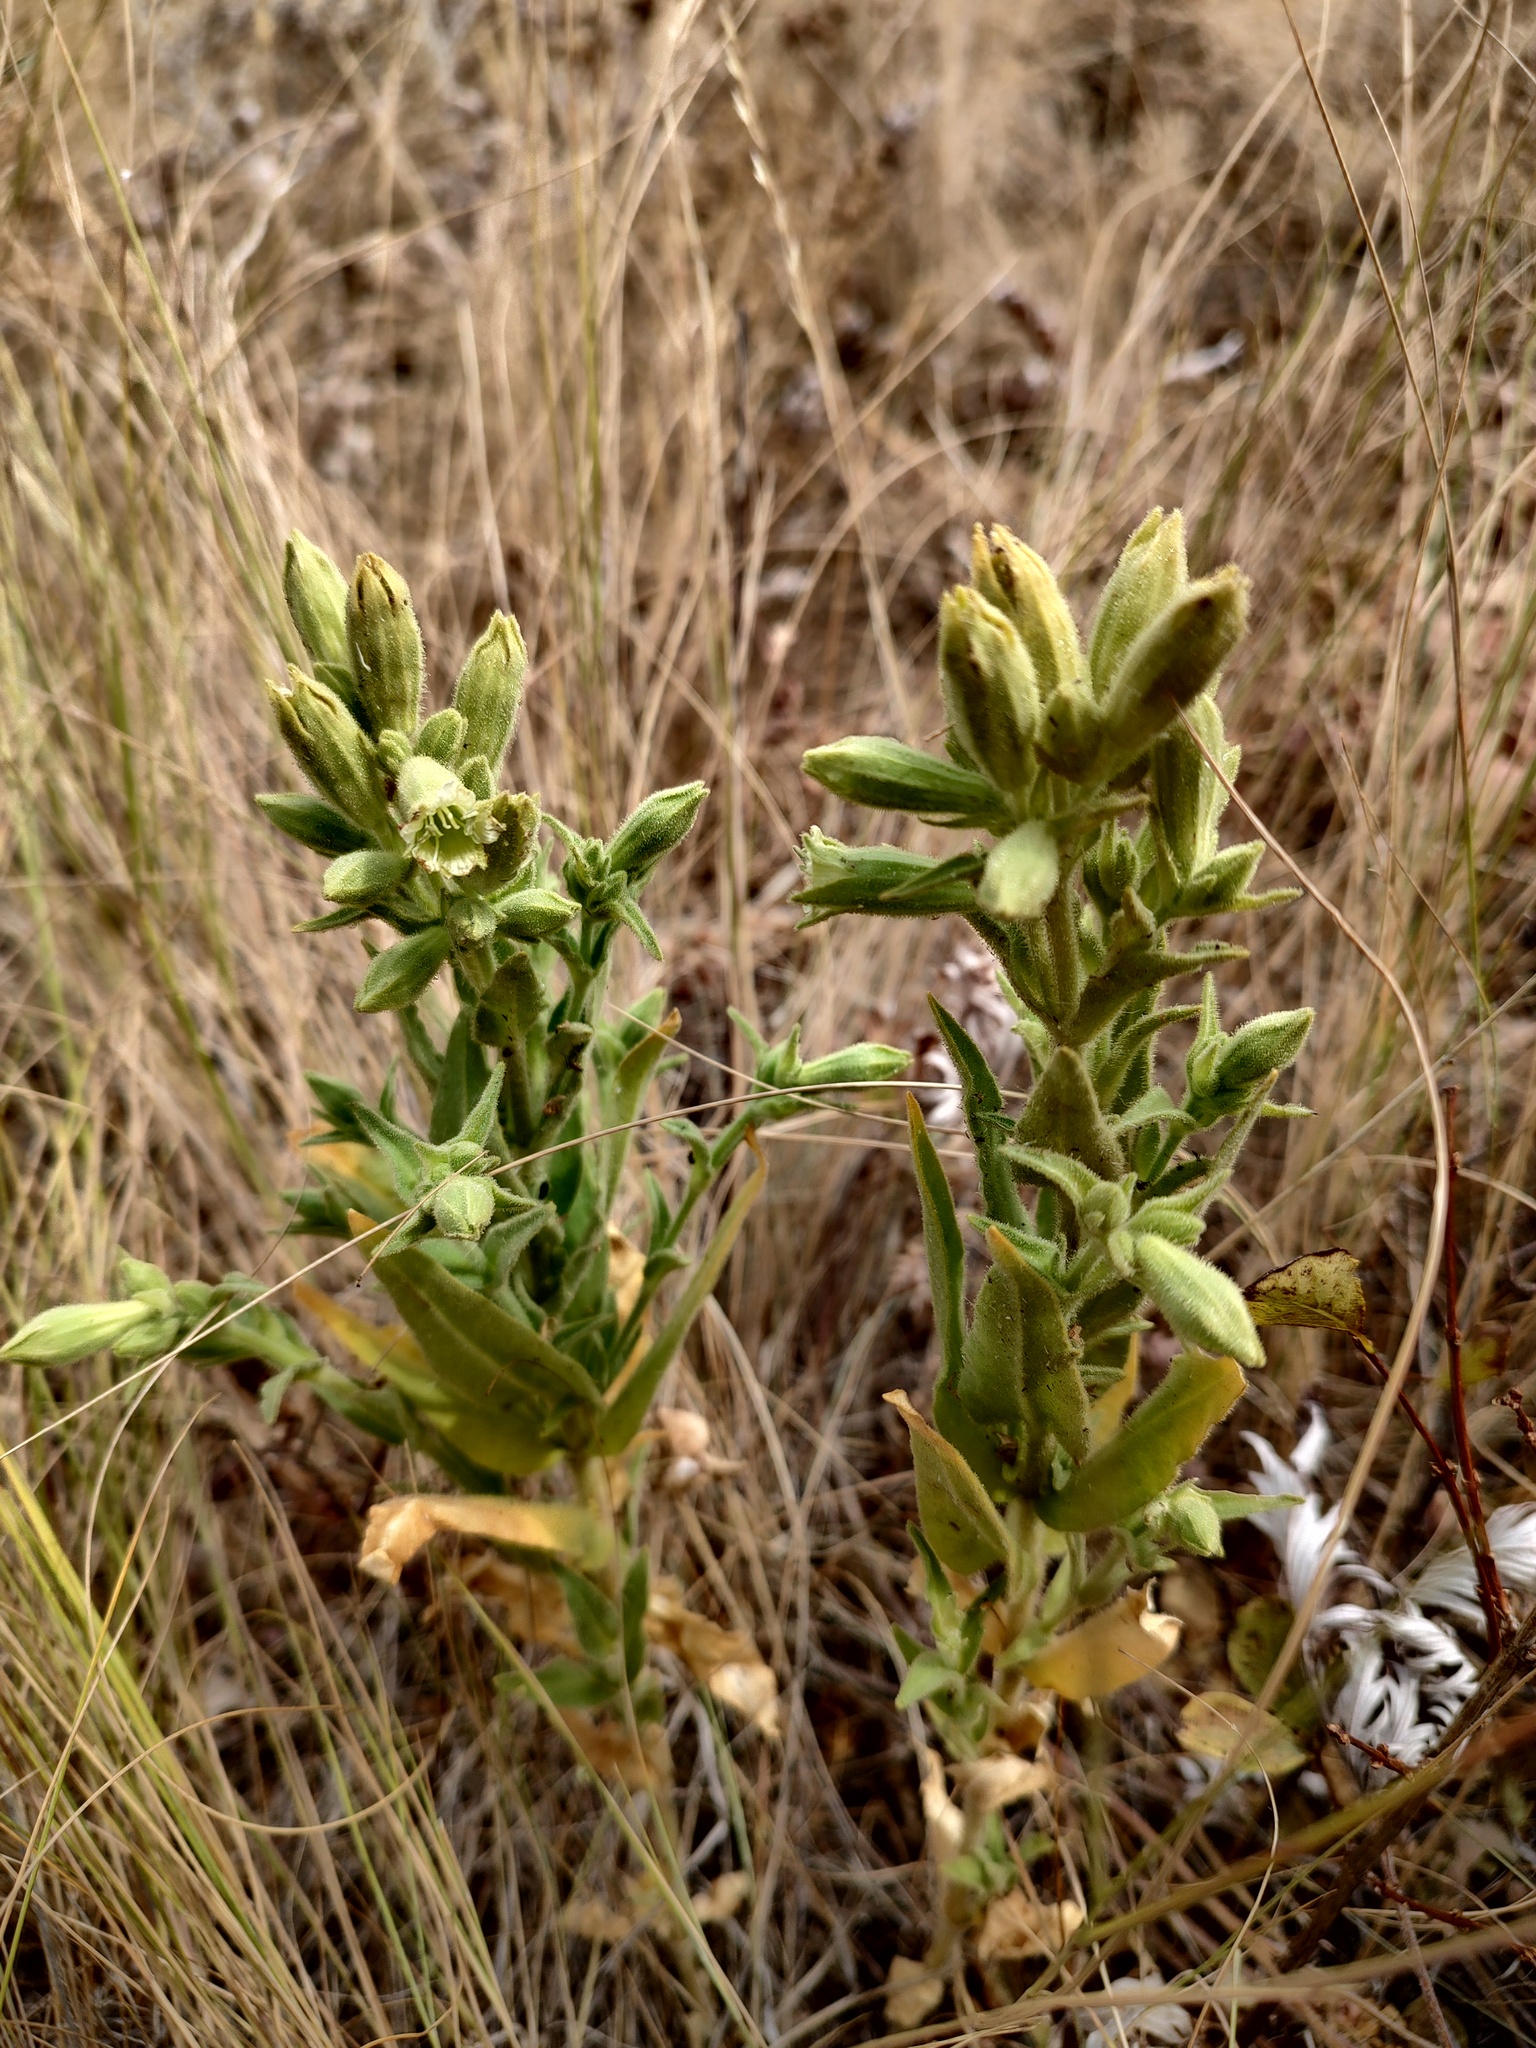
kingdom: Plantae
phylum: Tracheophyta
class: Magnoliopsida
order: Caryophyllales
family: Caryophyllaceae
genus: Silene
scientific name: Silene spaldingii
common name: Spalding's campion
